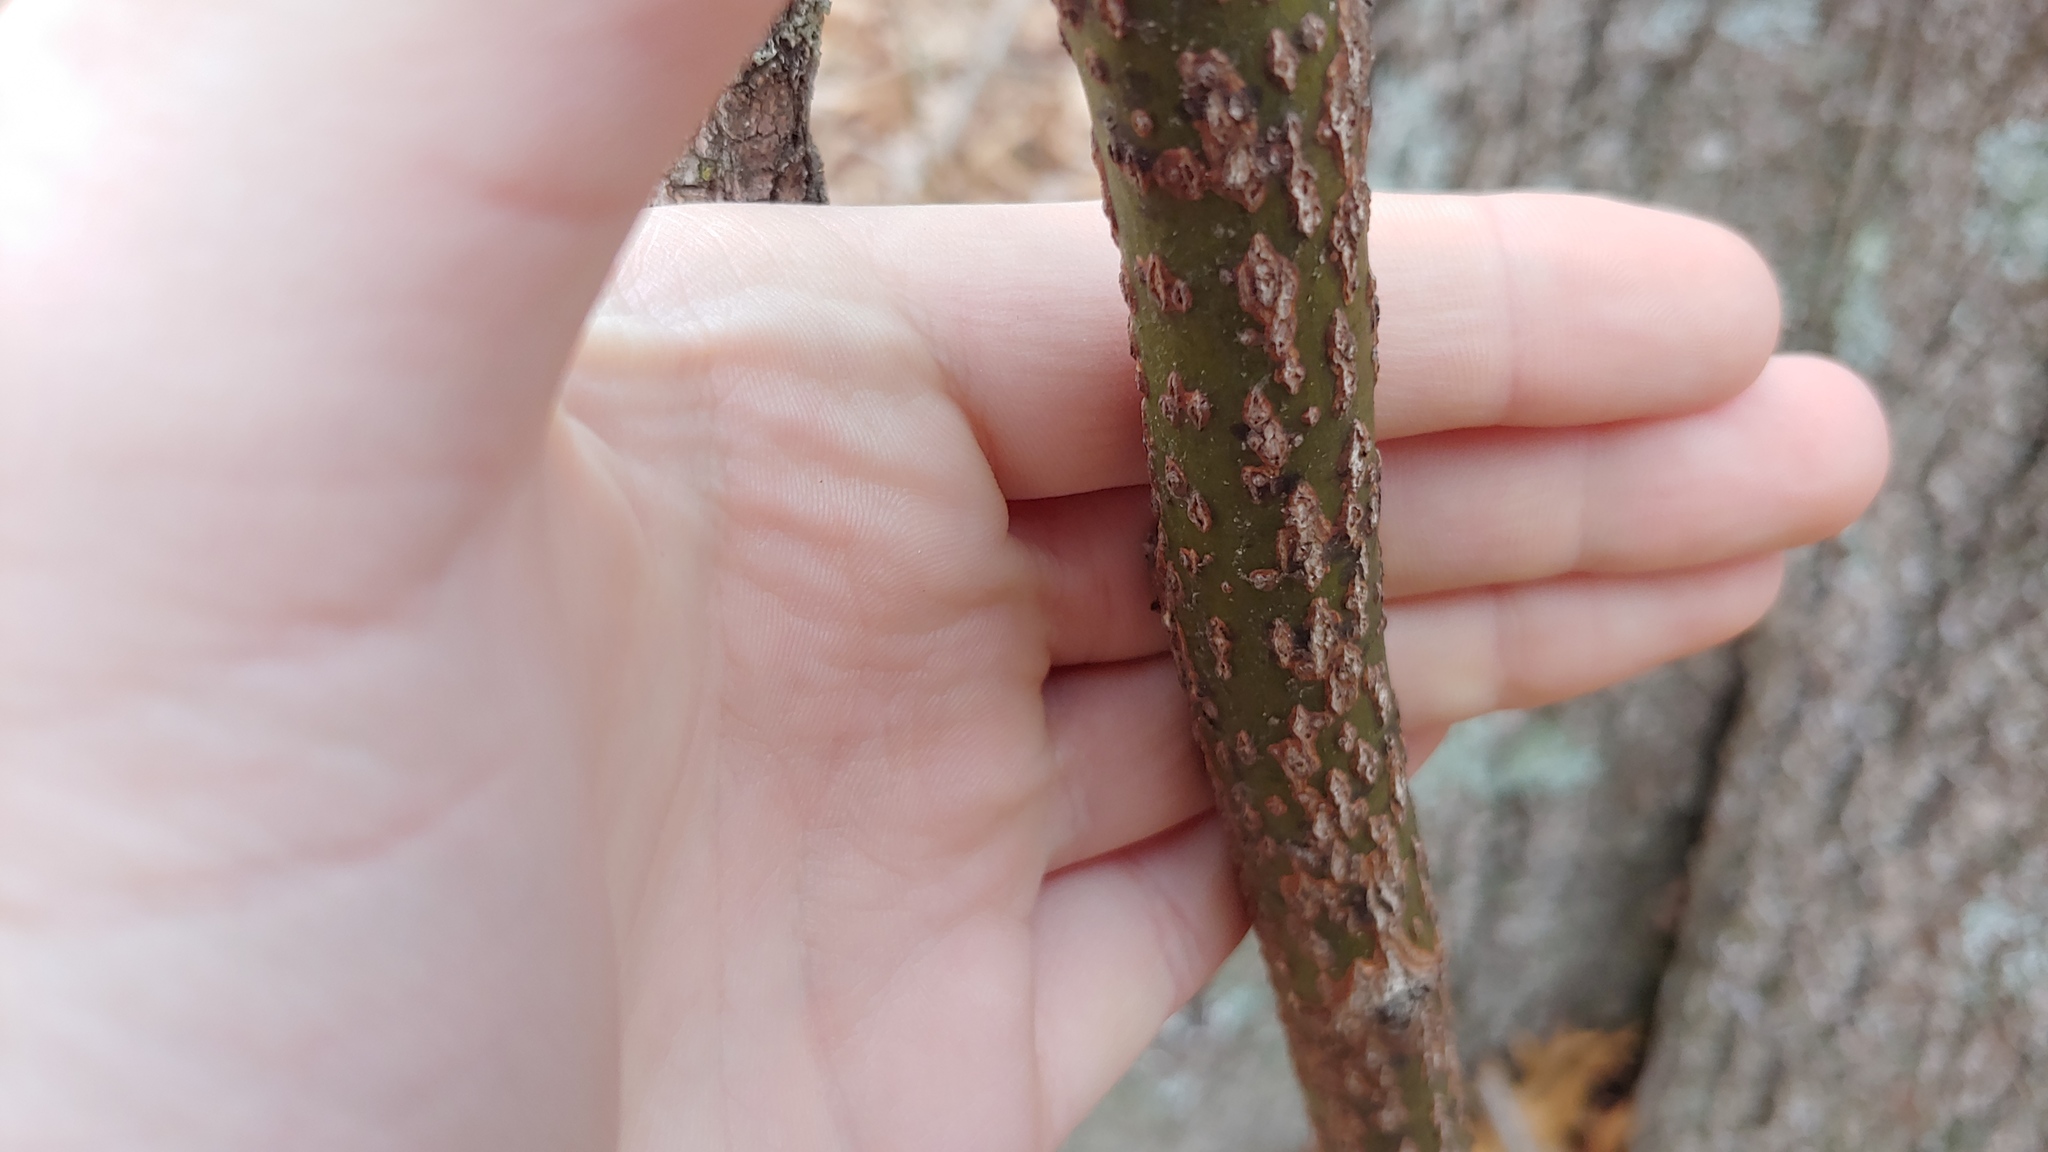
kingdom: Plantae
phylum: Tracheophyta
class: Magnoliopsida
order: Laurales
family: Lauraceae
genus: Sassafras
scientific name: Sassafras albidum
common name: Sassafras
